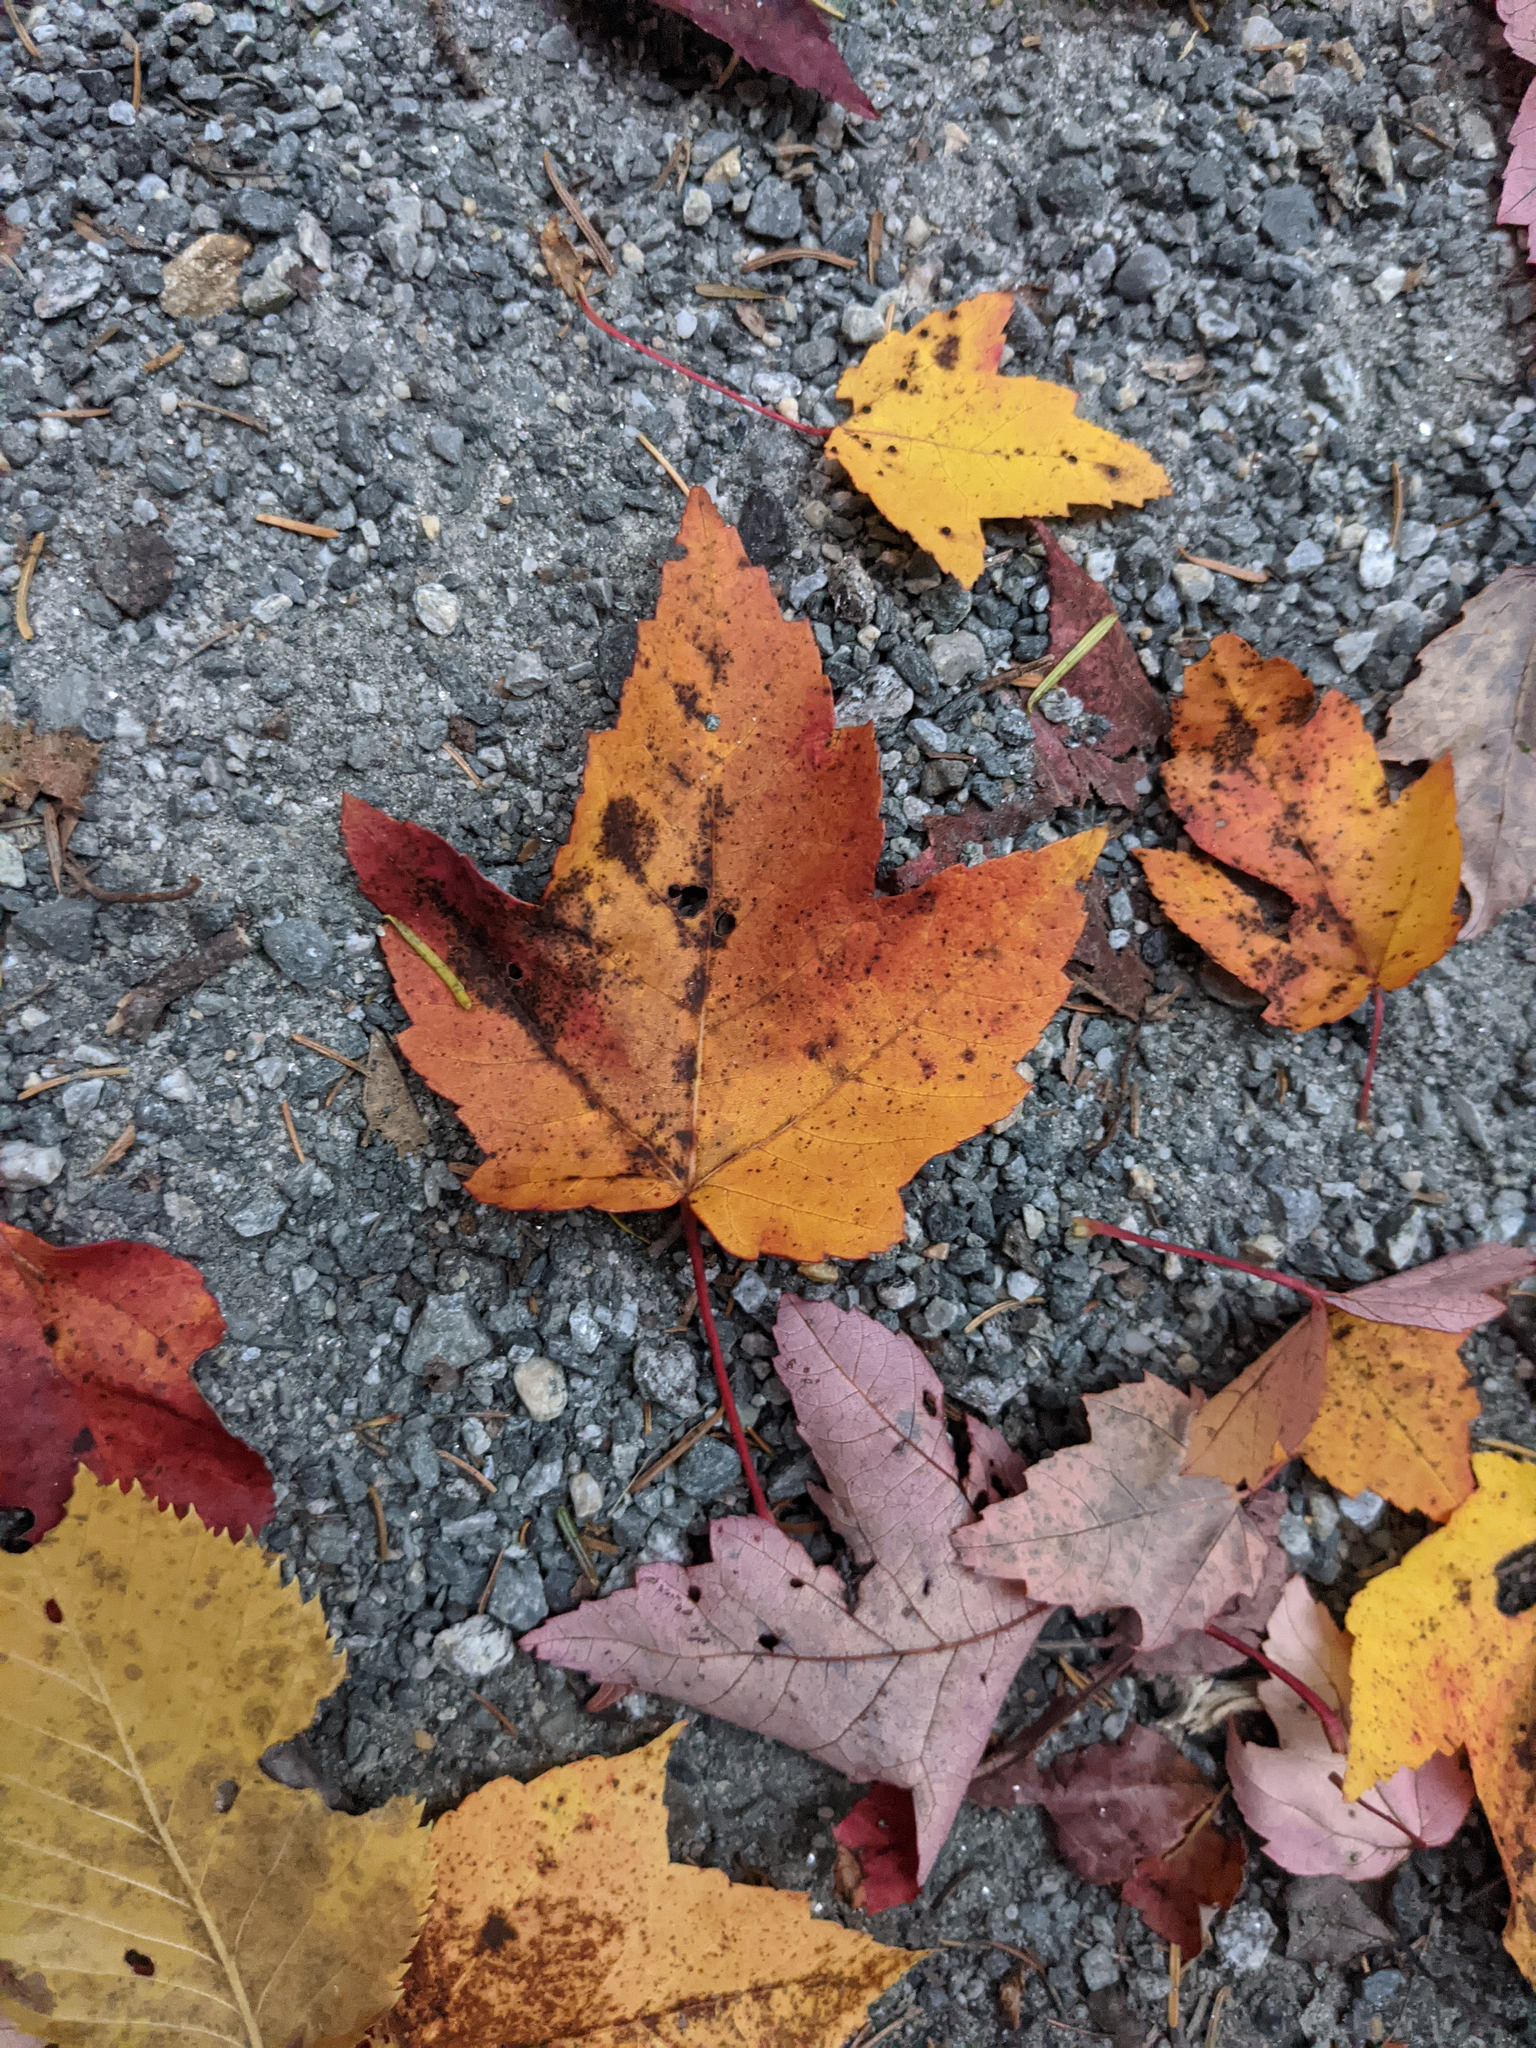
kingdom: Plantae
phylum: Tracheophyta
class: Magnoliopsida
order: Sapindales
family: Sapindaceae
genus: Acer
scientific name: Acer rubrum
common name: Red maple
